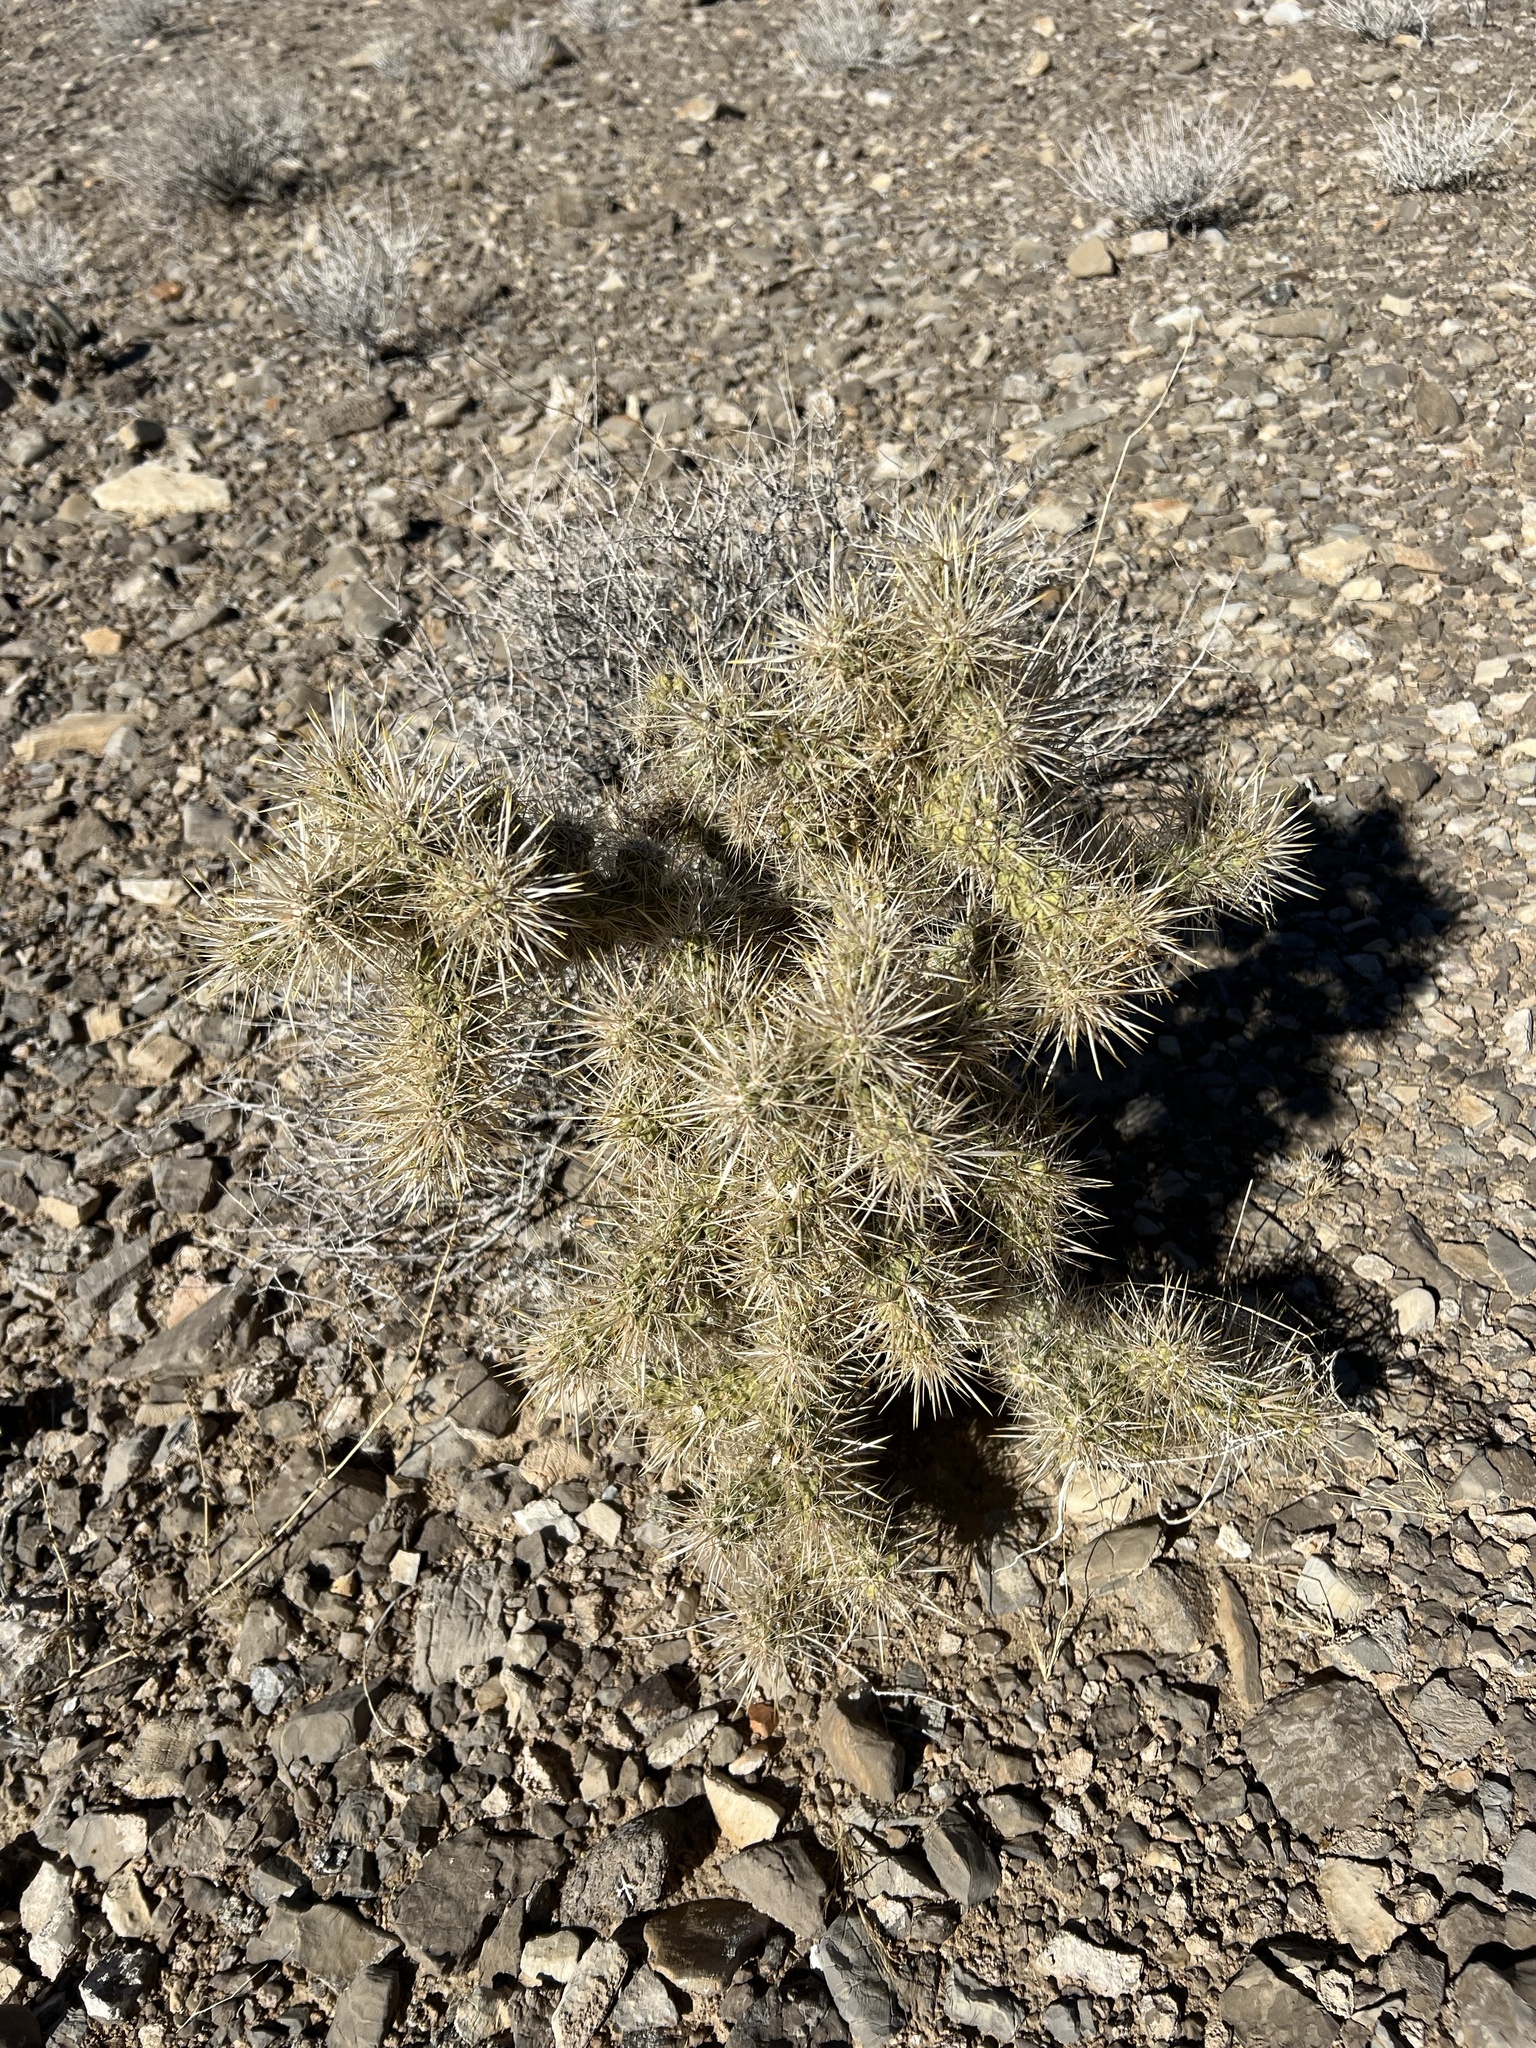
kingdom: Plantae
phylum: Tracheophyta
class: Magnoliopsida
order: Caryophyllales
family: Cactaceae
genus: Cylindropuntia
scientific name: Cylindropuntia echinocarpa
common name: Ground cholla
